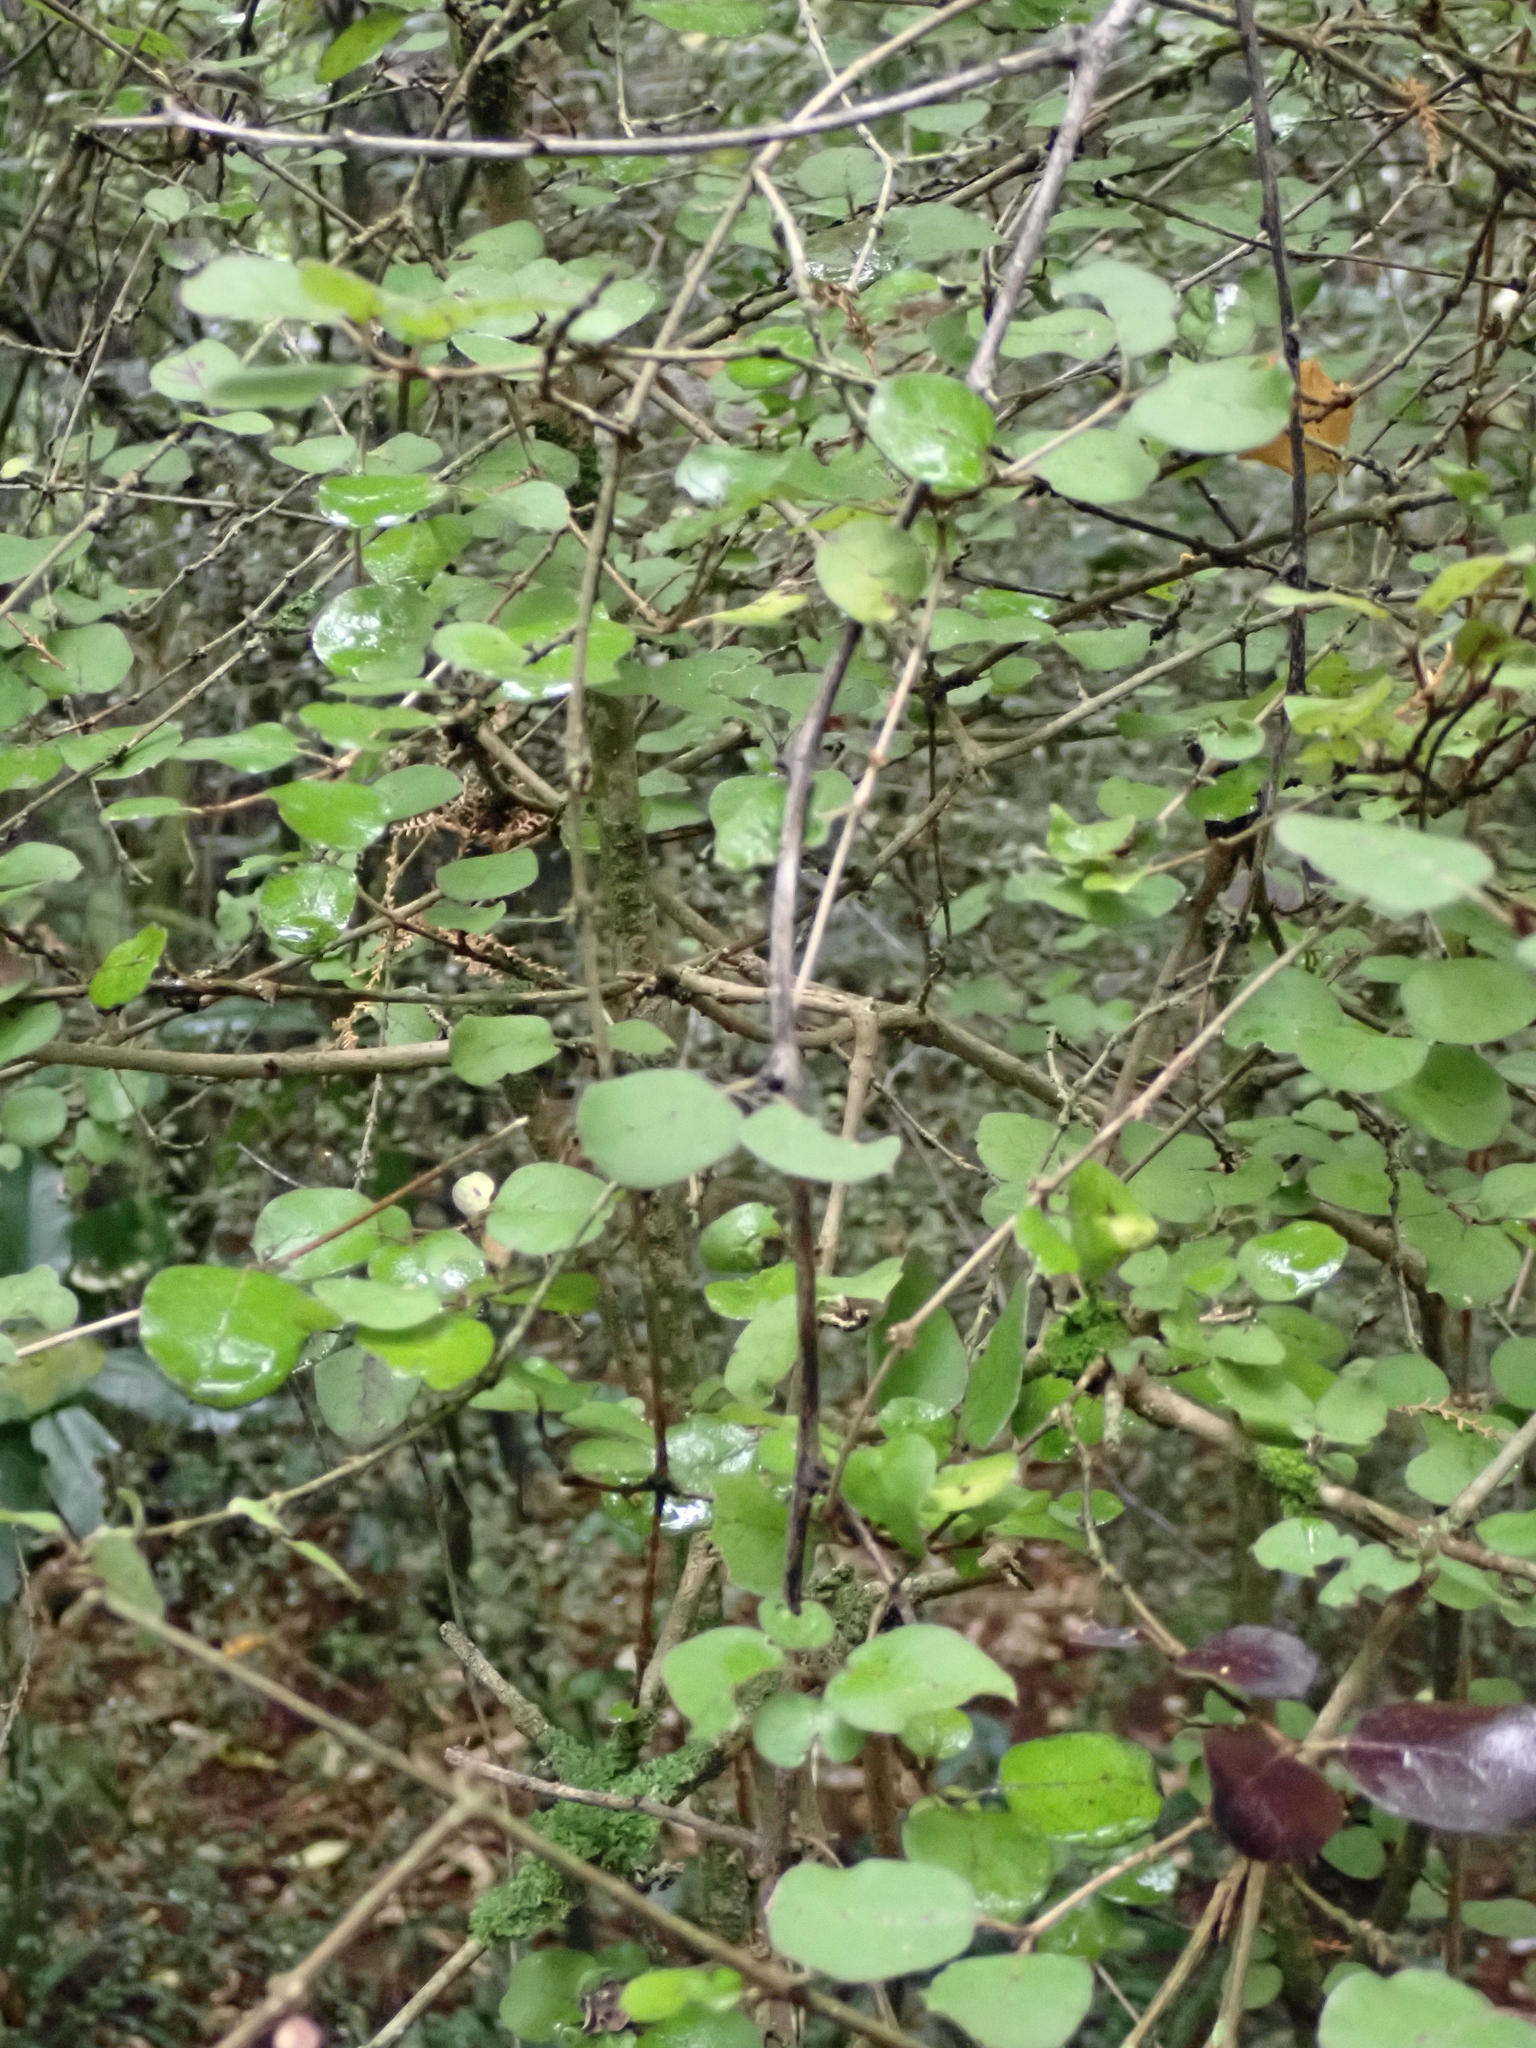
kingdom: Plantae
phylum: Tracheophyta
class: Magnoliopsida
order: Gentianales
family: Rubiaceae
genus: Coprosma
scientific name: Coprosma rotundifolia
